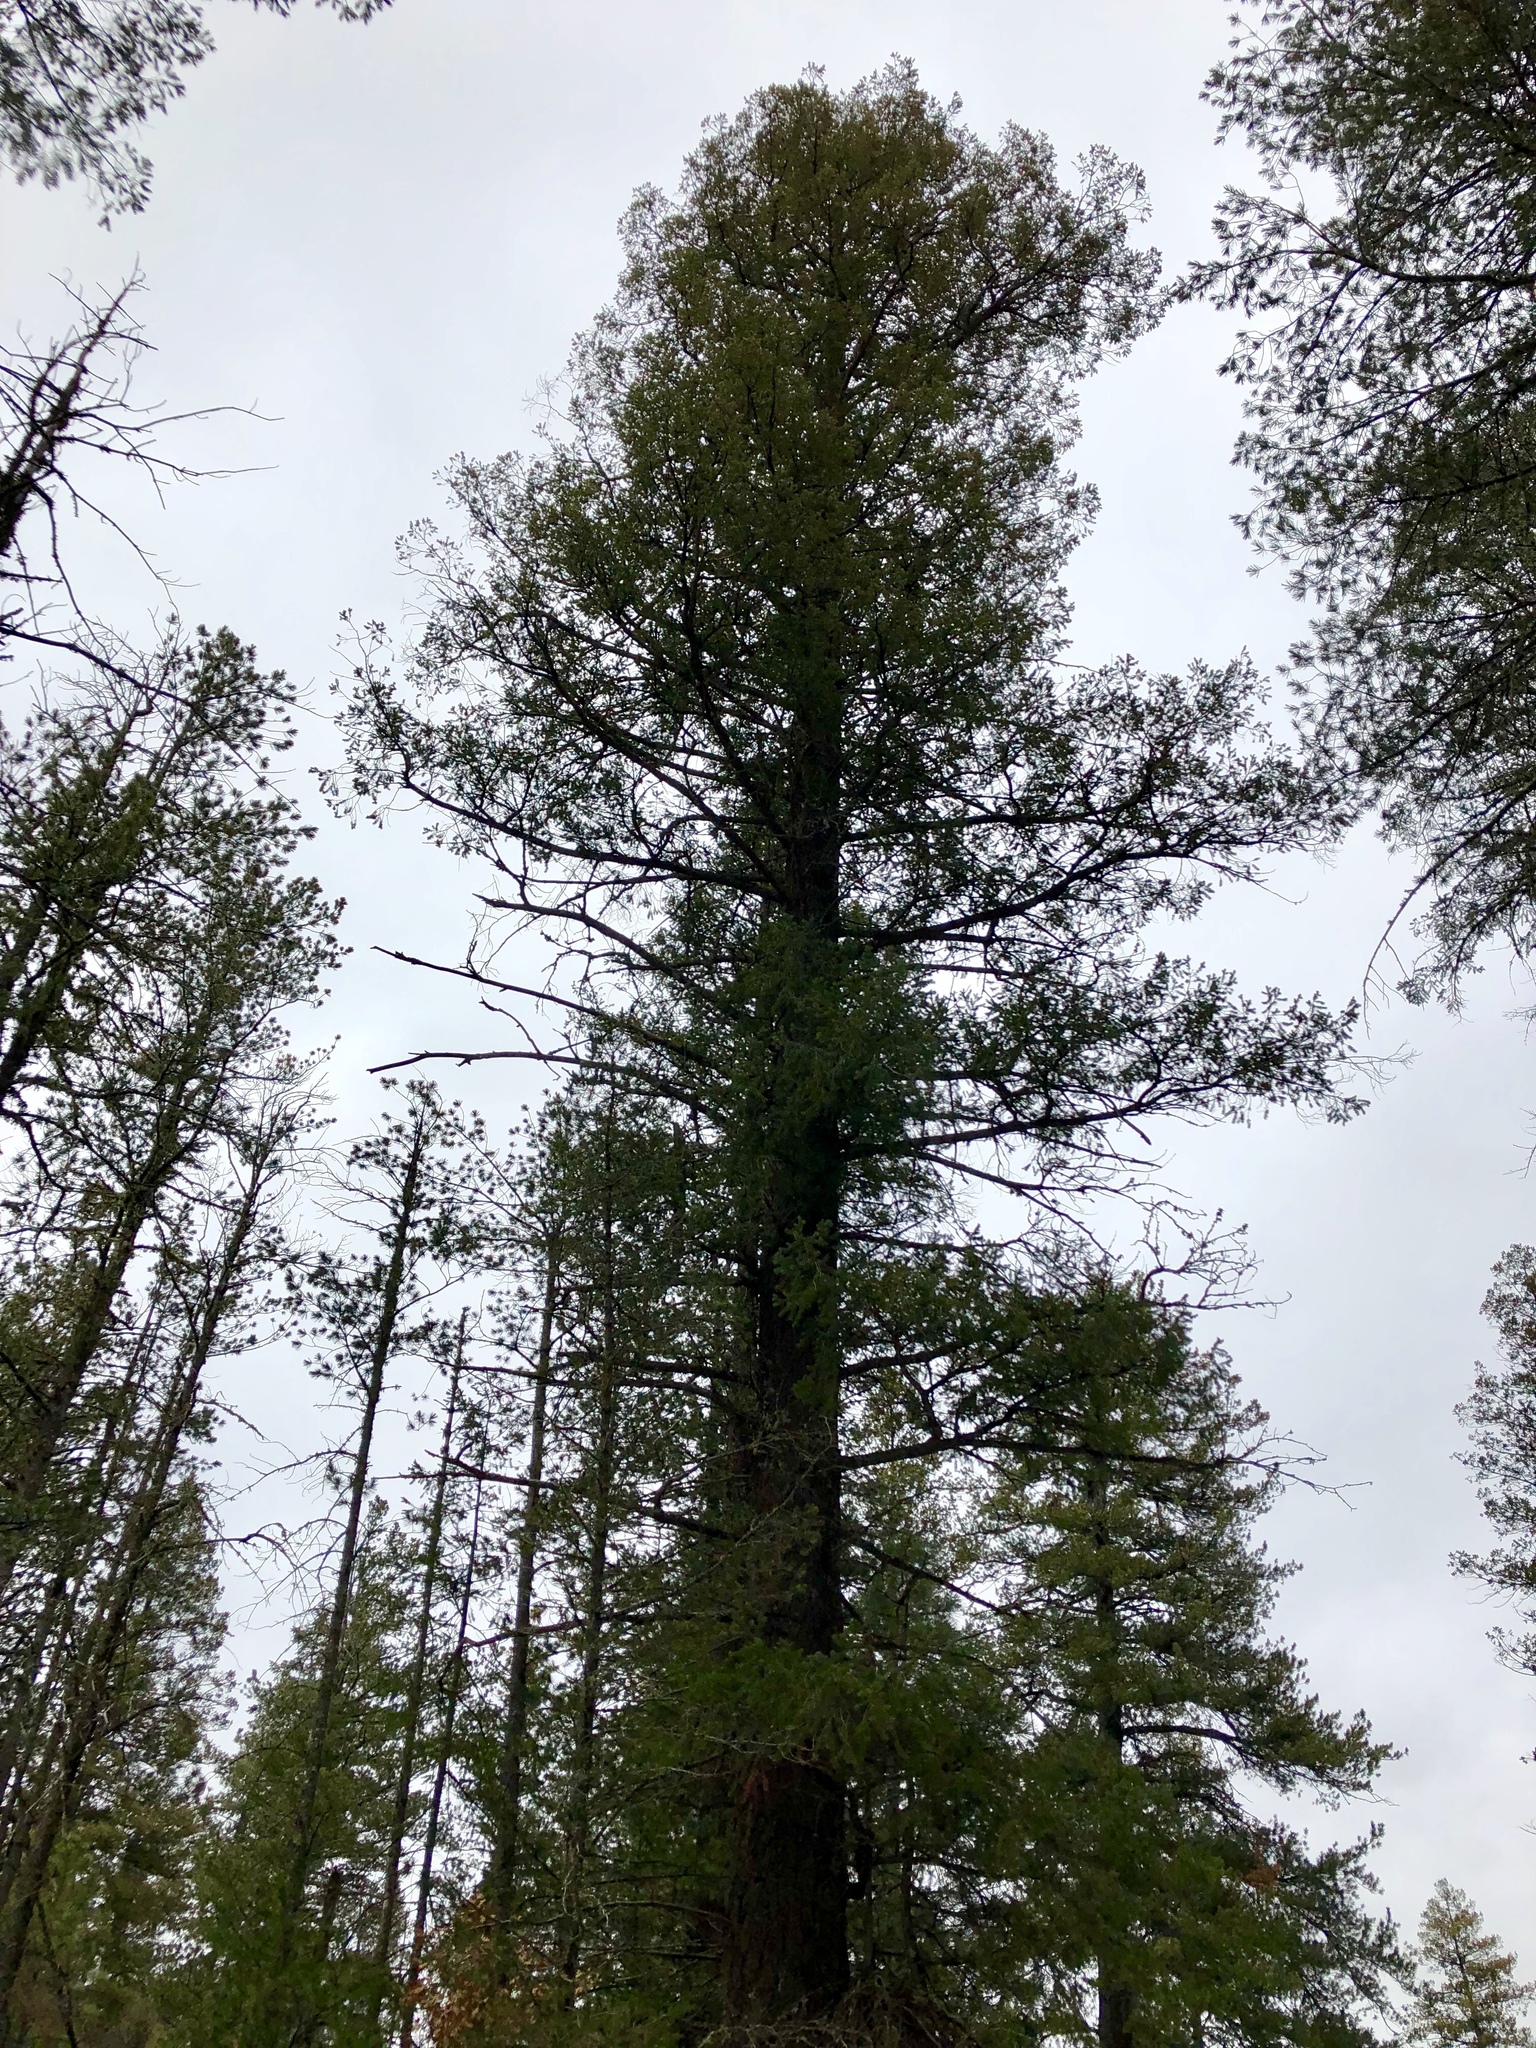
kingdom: Plantae
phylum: Tracheophyta
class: Pinopsida
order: Pinales
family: Pinaceae
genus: Pseudotsuga
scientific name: Pseudotsuga menziesii
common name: Douglas fir
